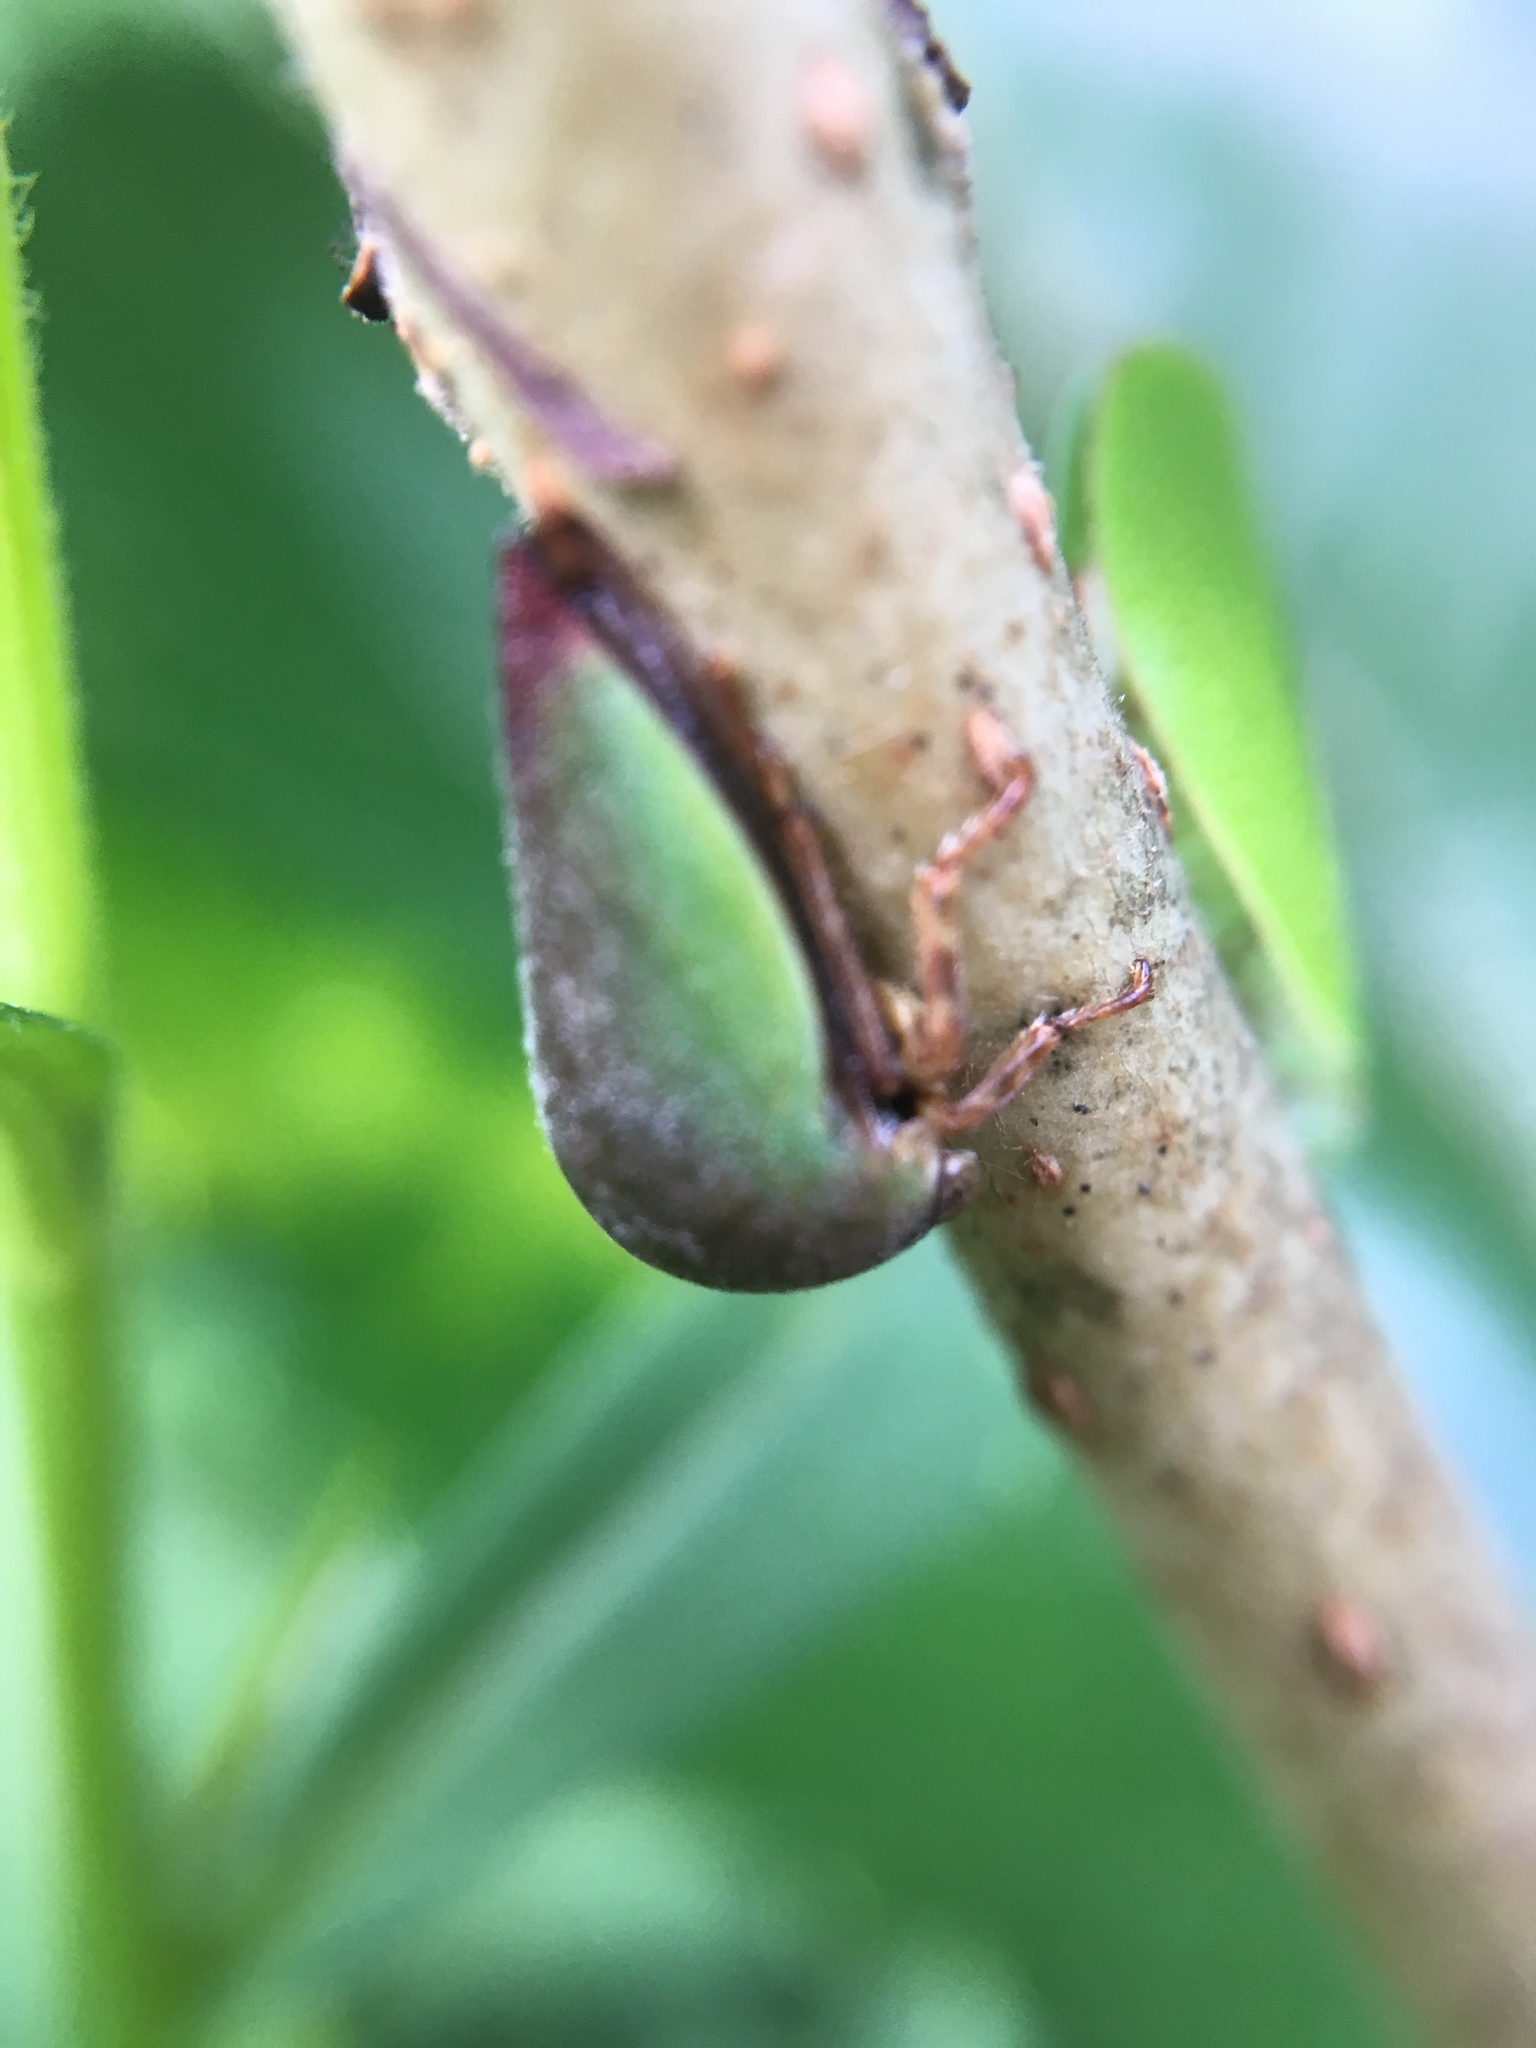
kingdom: Animalia
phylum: Arthropoda
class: Insecta
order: Hemiptera
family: Membracidae
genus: Hebetica
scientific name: Hebetica
